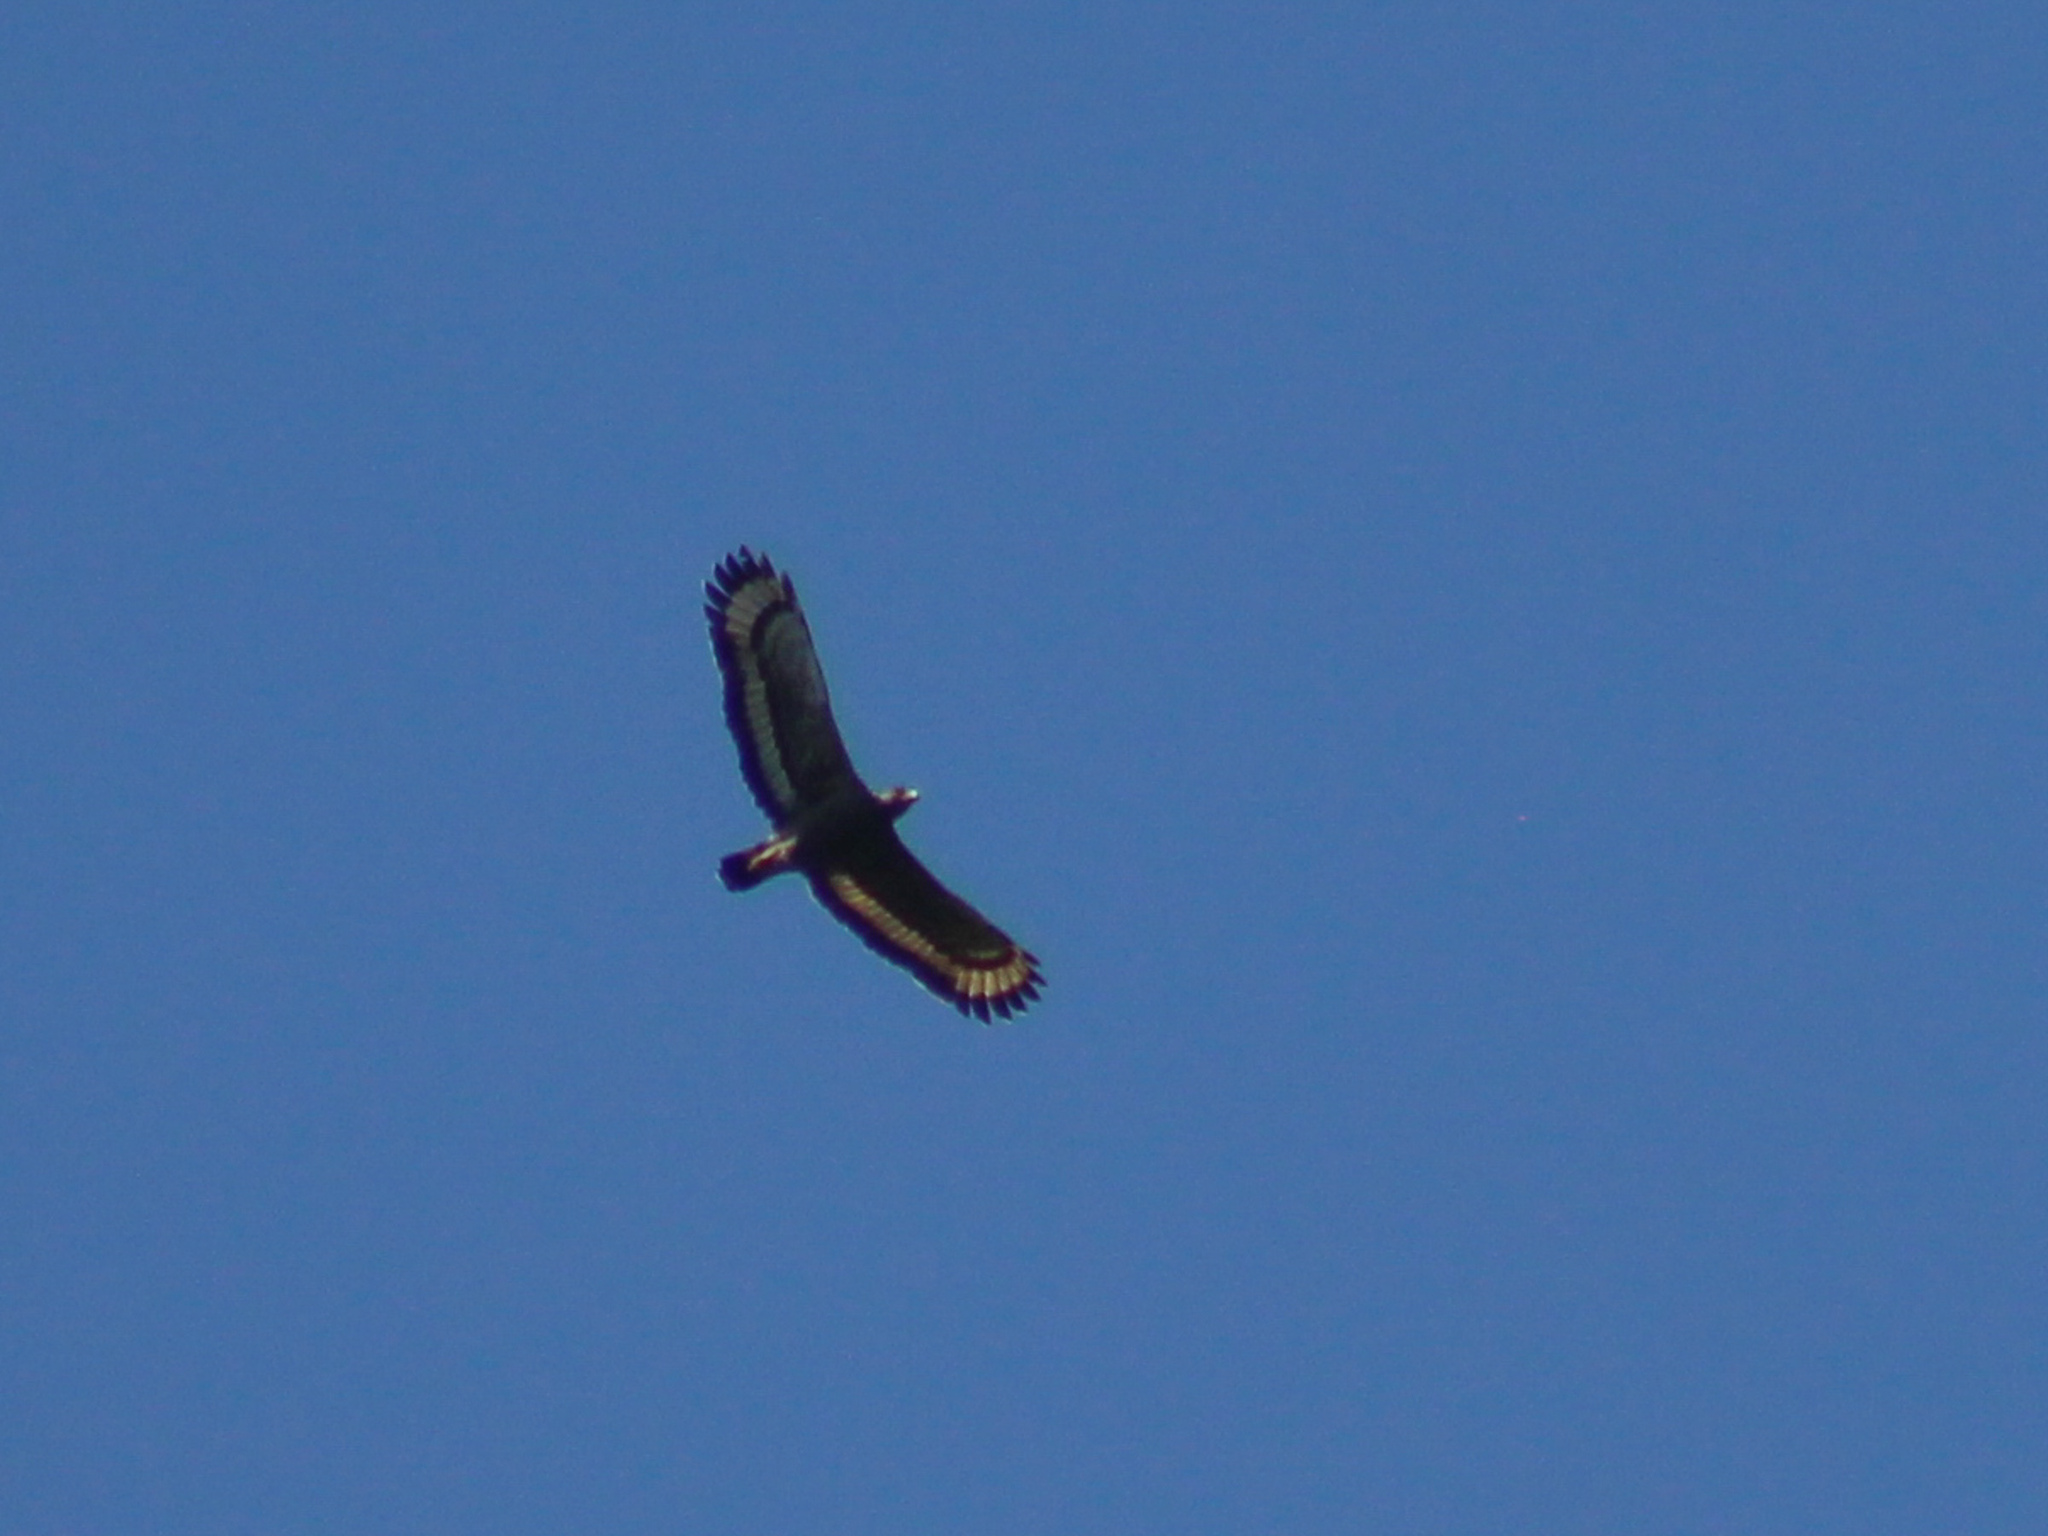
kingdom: Animalia
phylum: Chordata
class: Aves
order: Accipitriformes
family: Accipitridae
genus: Spilornis
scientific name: Spilornis cheela
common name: Crested serpent eagle
